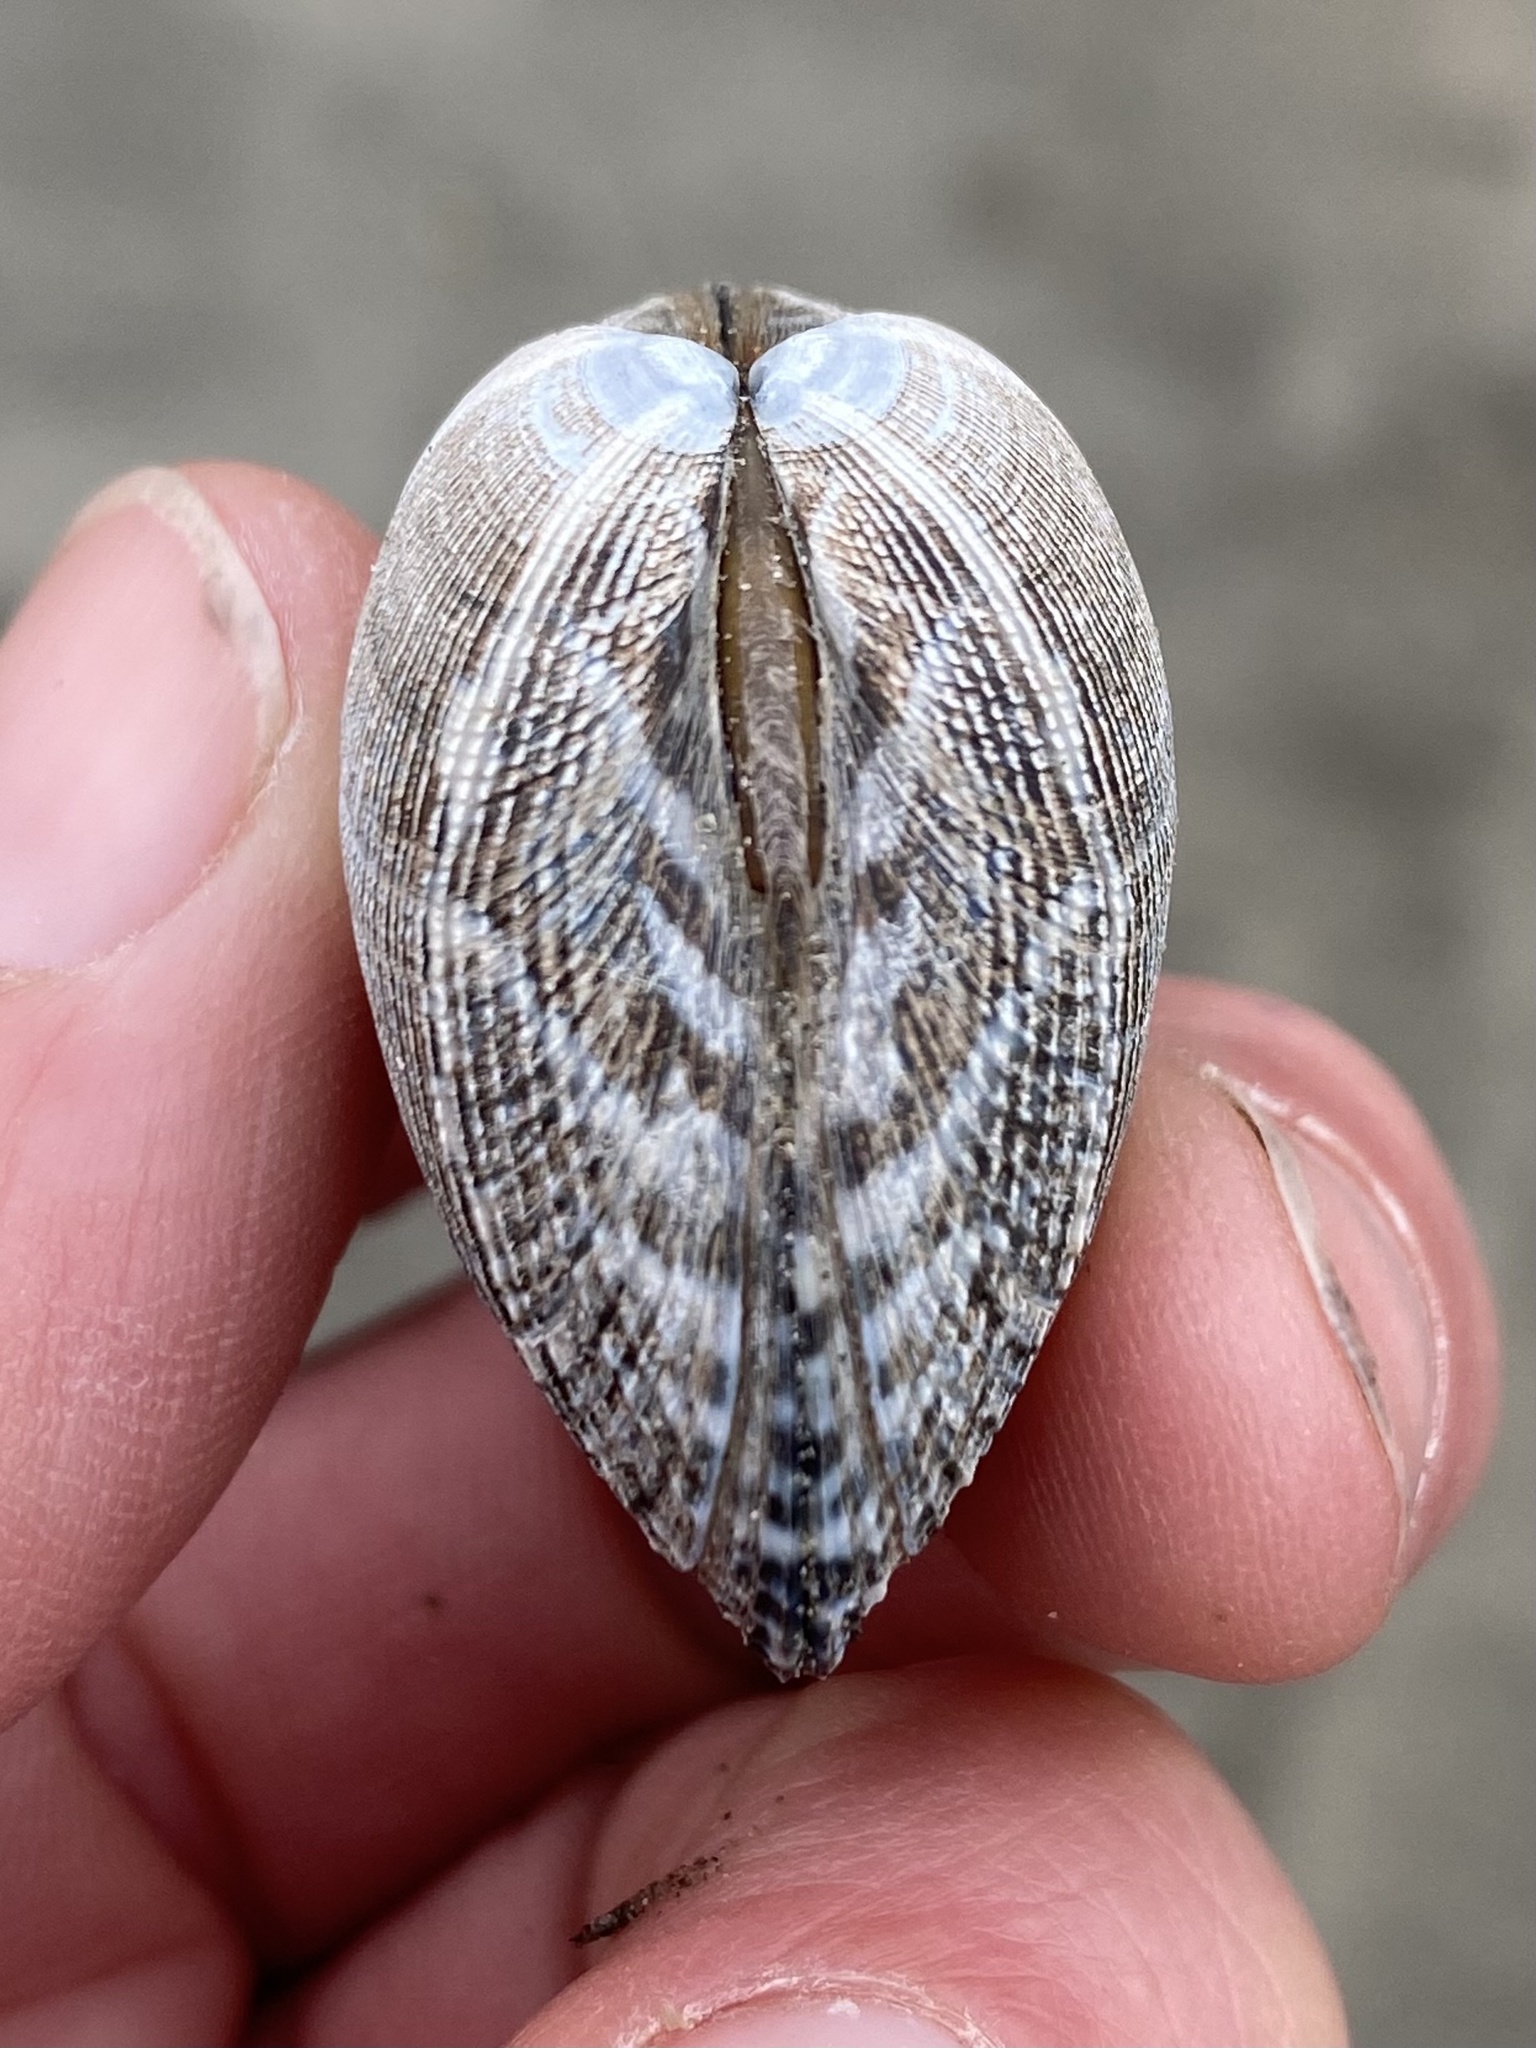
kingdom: Animalia
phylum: Mollusca
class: Bivalvia
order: Venerida
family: Veneridae
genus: Ruditapes
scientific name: Ruditapes philippinarum
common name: Manila clam
